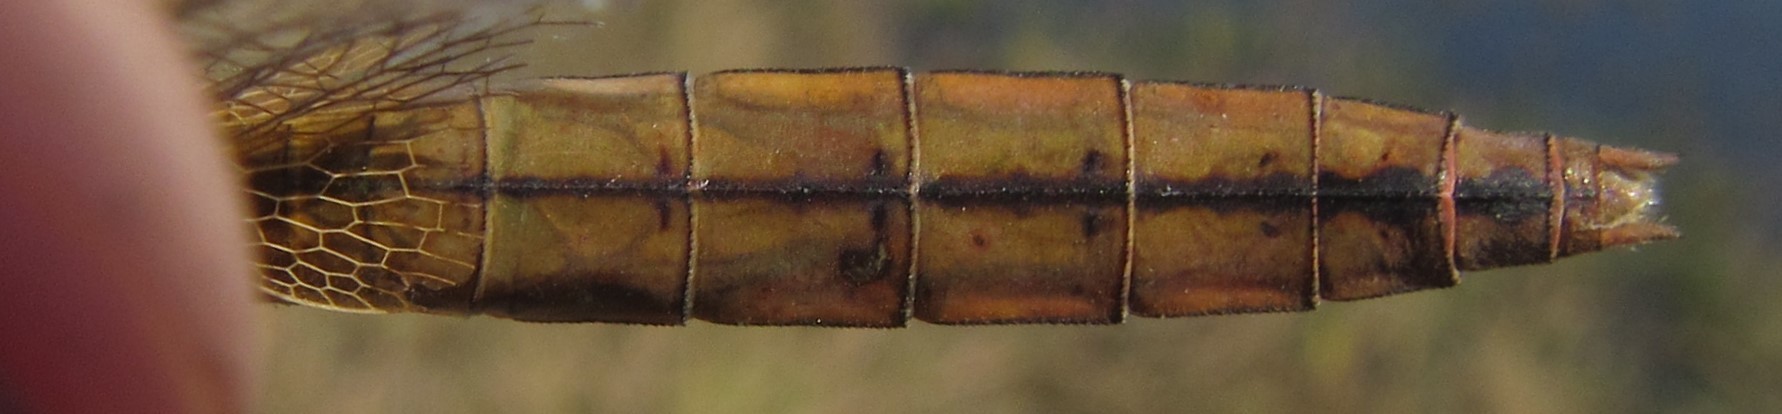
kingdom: Animalia
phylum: Arthropoda
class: Insecta
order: Odonata
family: Libellulidae
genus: Crocothemis
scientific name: Crocothemis erythraea
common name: Scarlet dragonfly
